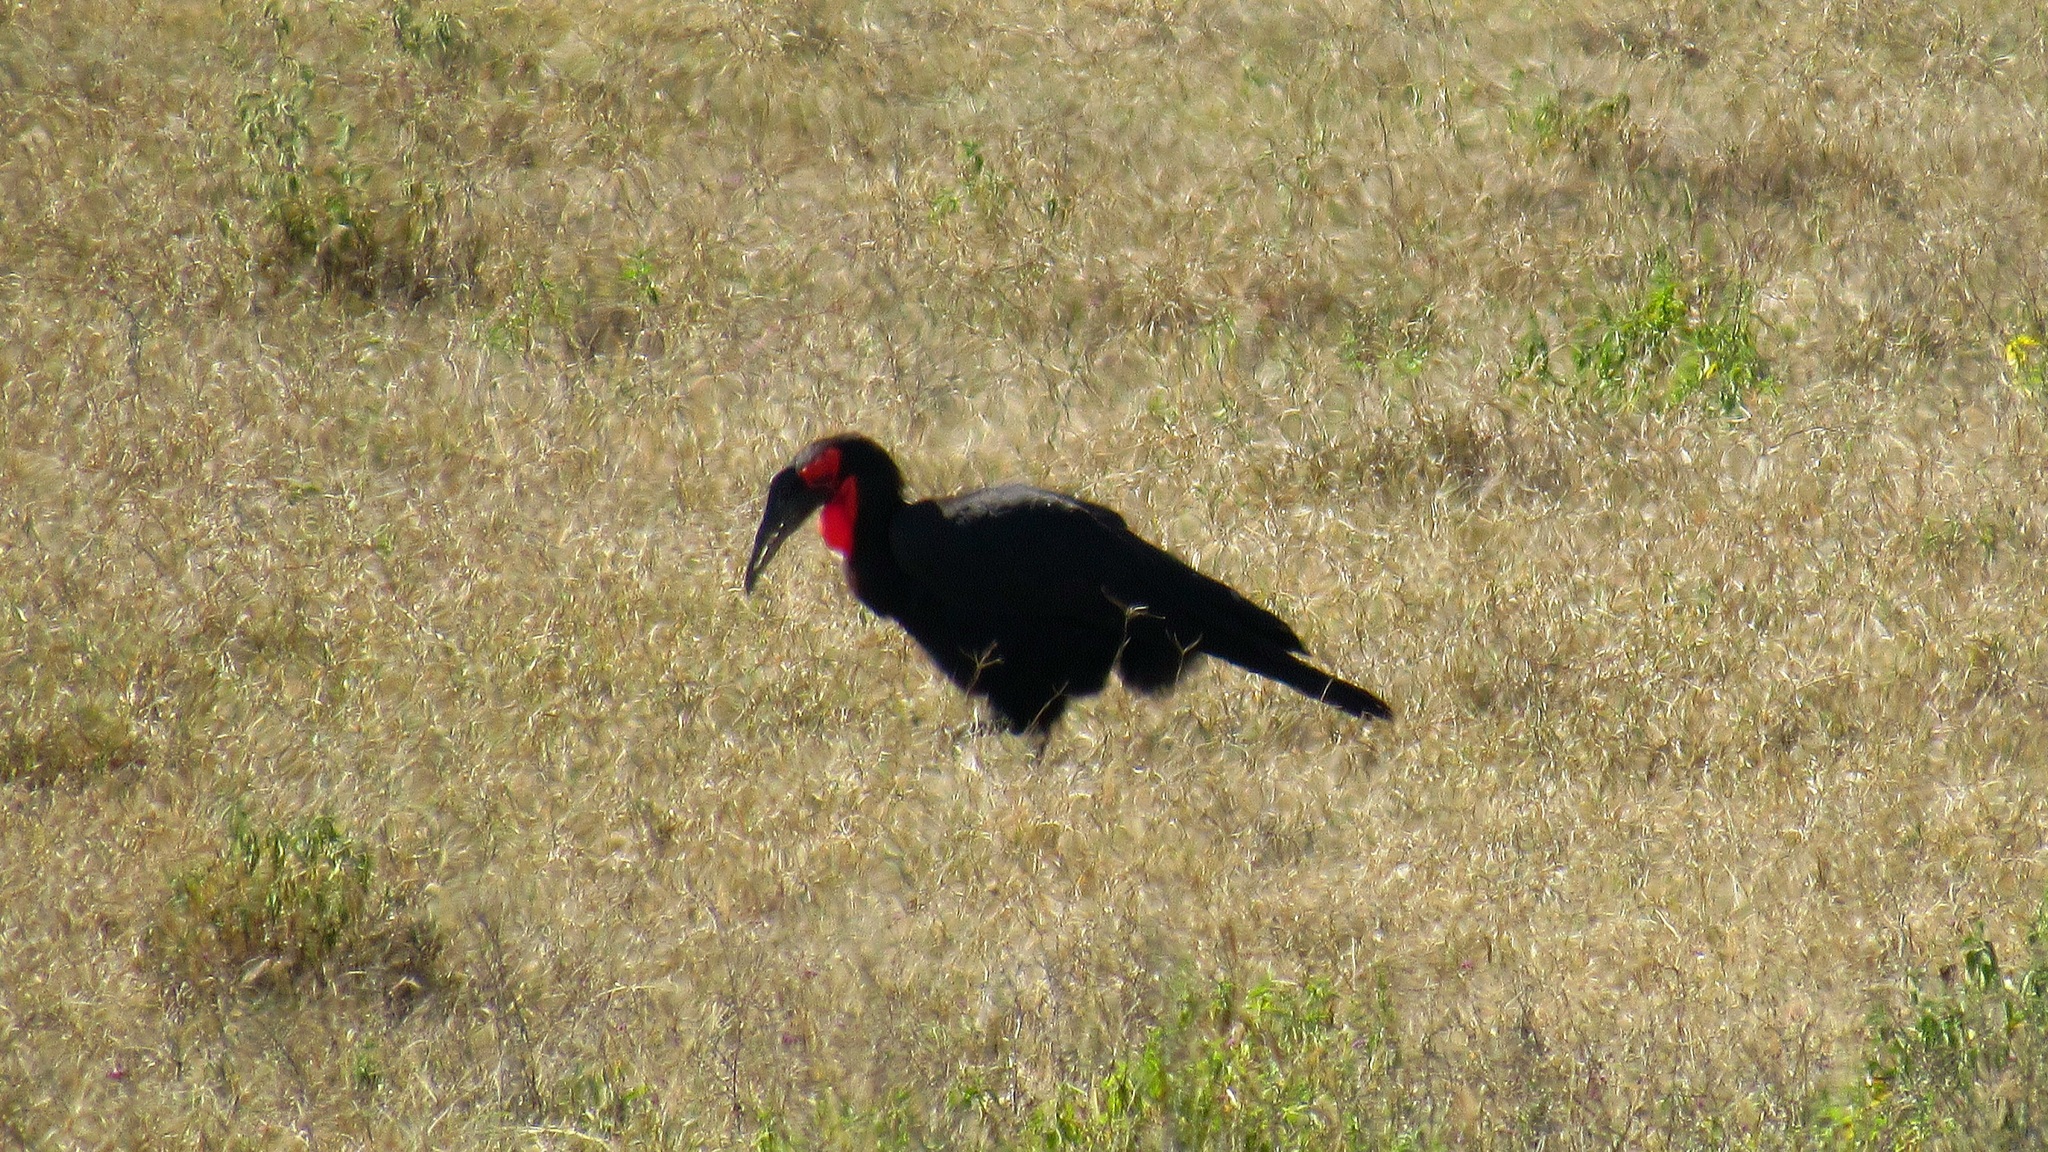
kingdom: Animalia
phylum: Chordata
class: Aves
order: Bucerotiformes
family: Bucorvidae
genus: Bucorvus
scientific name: Bucorvus leadbeateri
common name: Southern ground-hornbill
